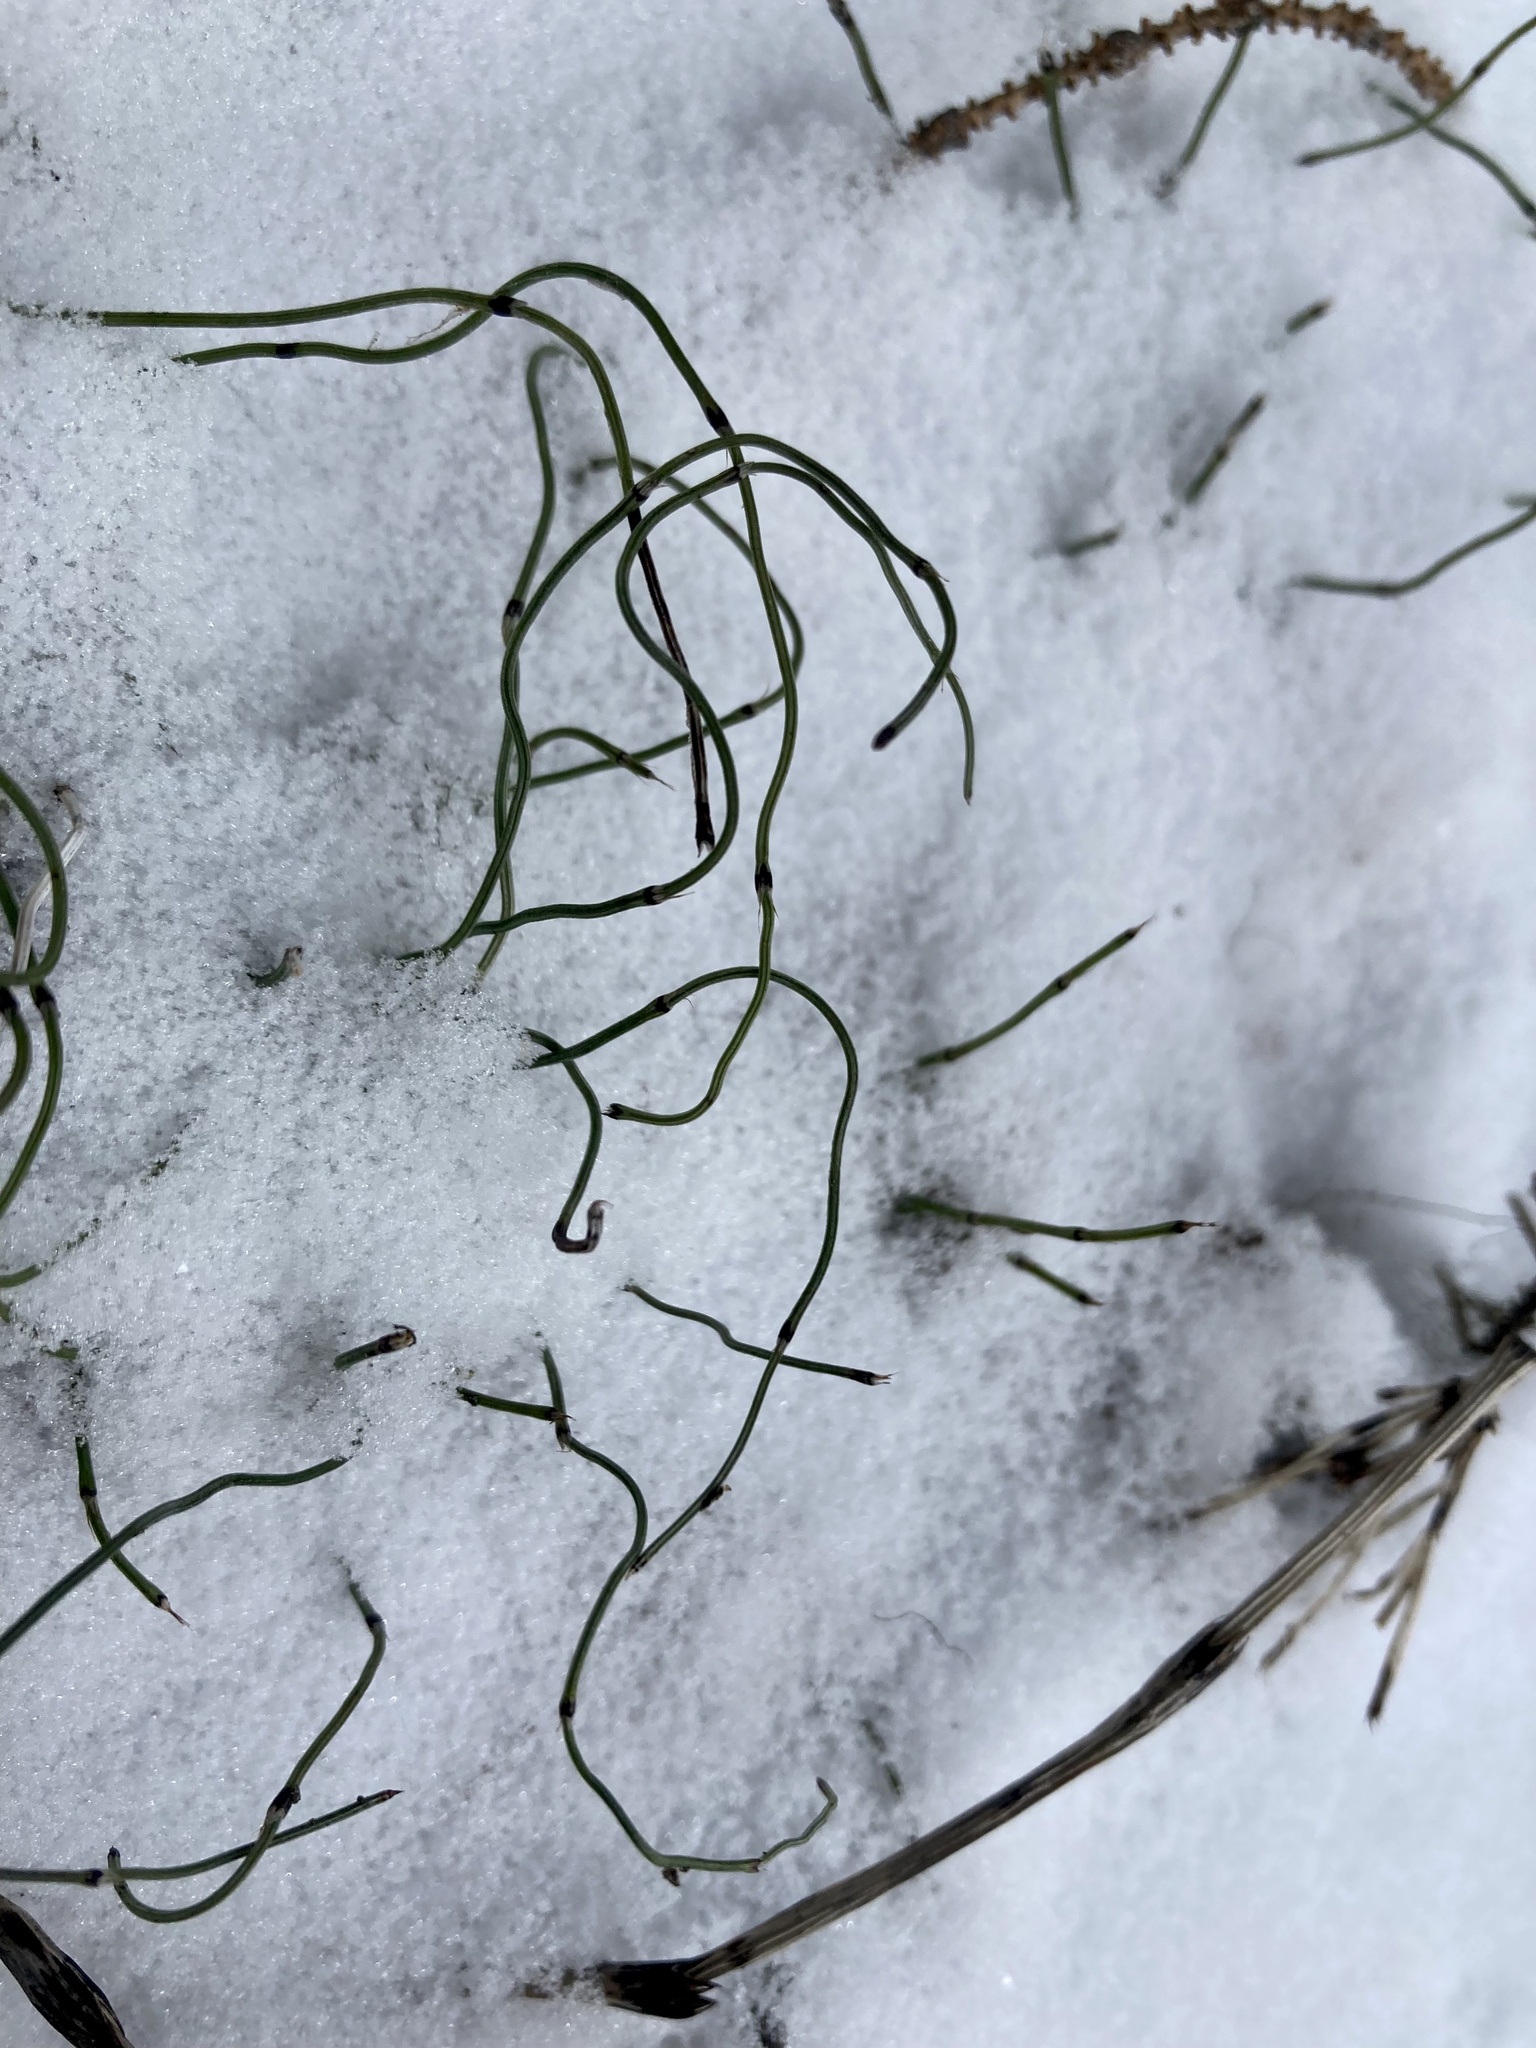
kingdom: Plantae
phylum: Tracheophyta
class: Polypodiopsida
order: Equisetales
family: Equisetaceae
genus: Equisetum
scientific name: Equisetum scirpoides
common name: Delicate horsetail
